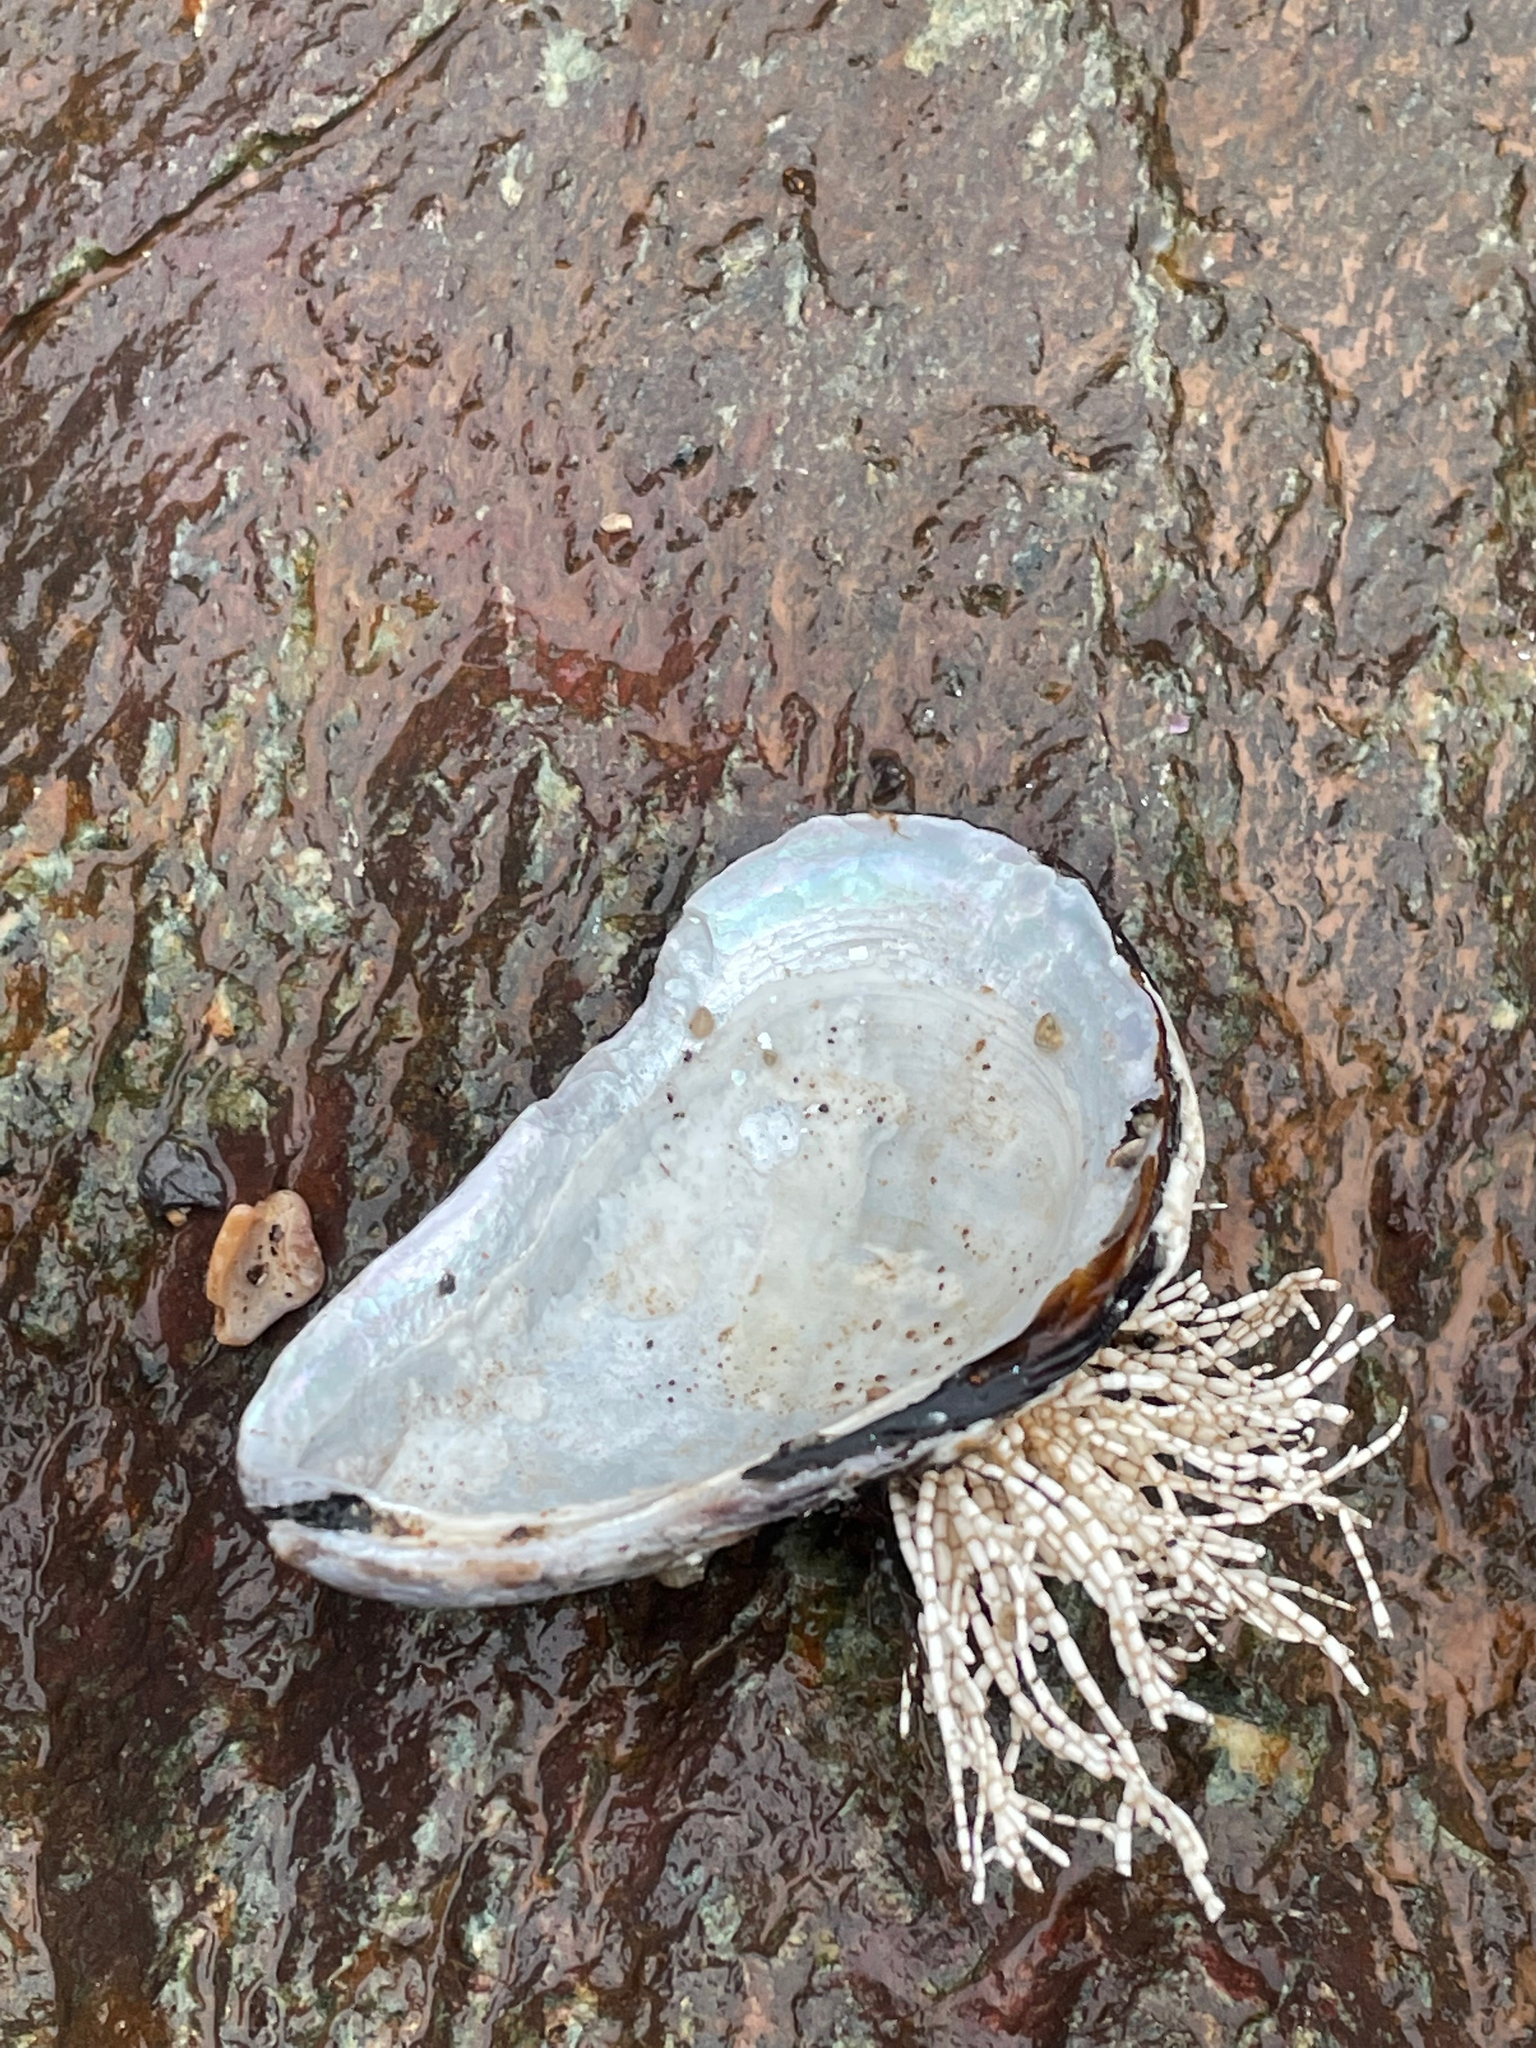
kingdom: Animalia
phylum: Mollusca
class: Bivalvia
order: Mytilida
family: Mytilidae
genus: Modiolus
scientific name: Modiolus modiolus
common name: Horse-mussel
